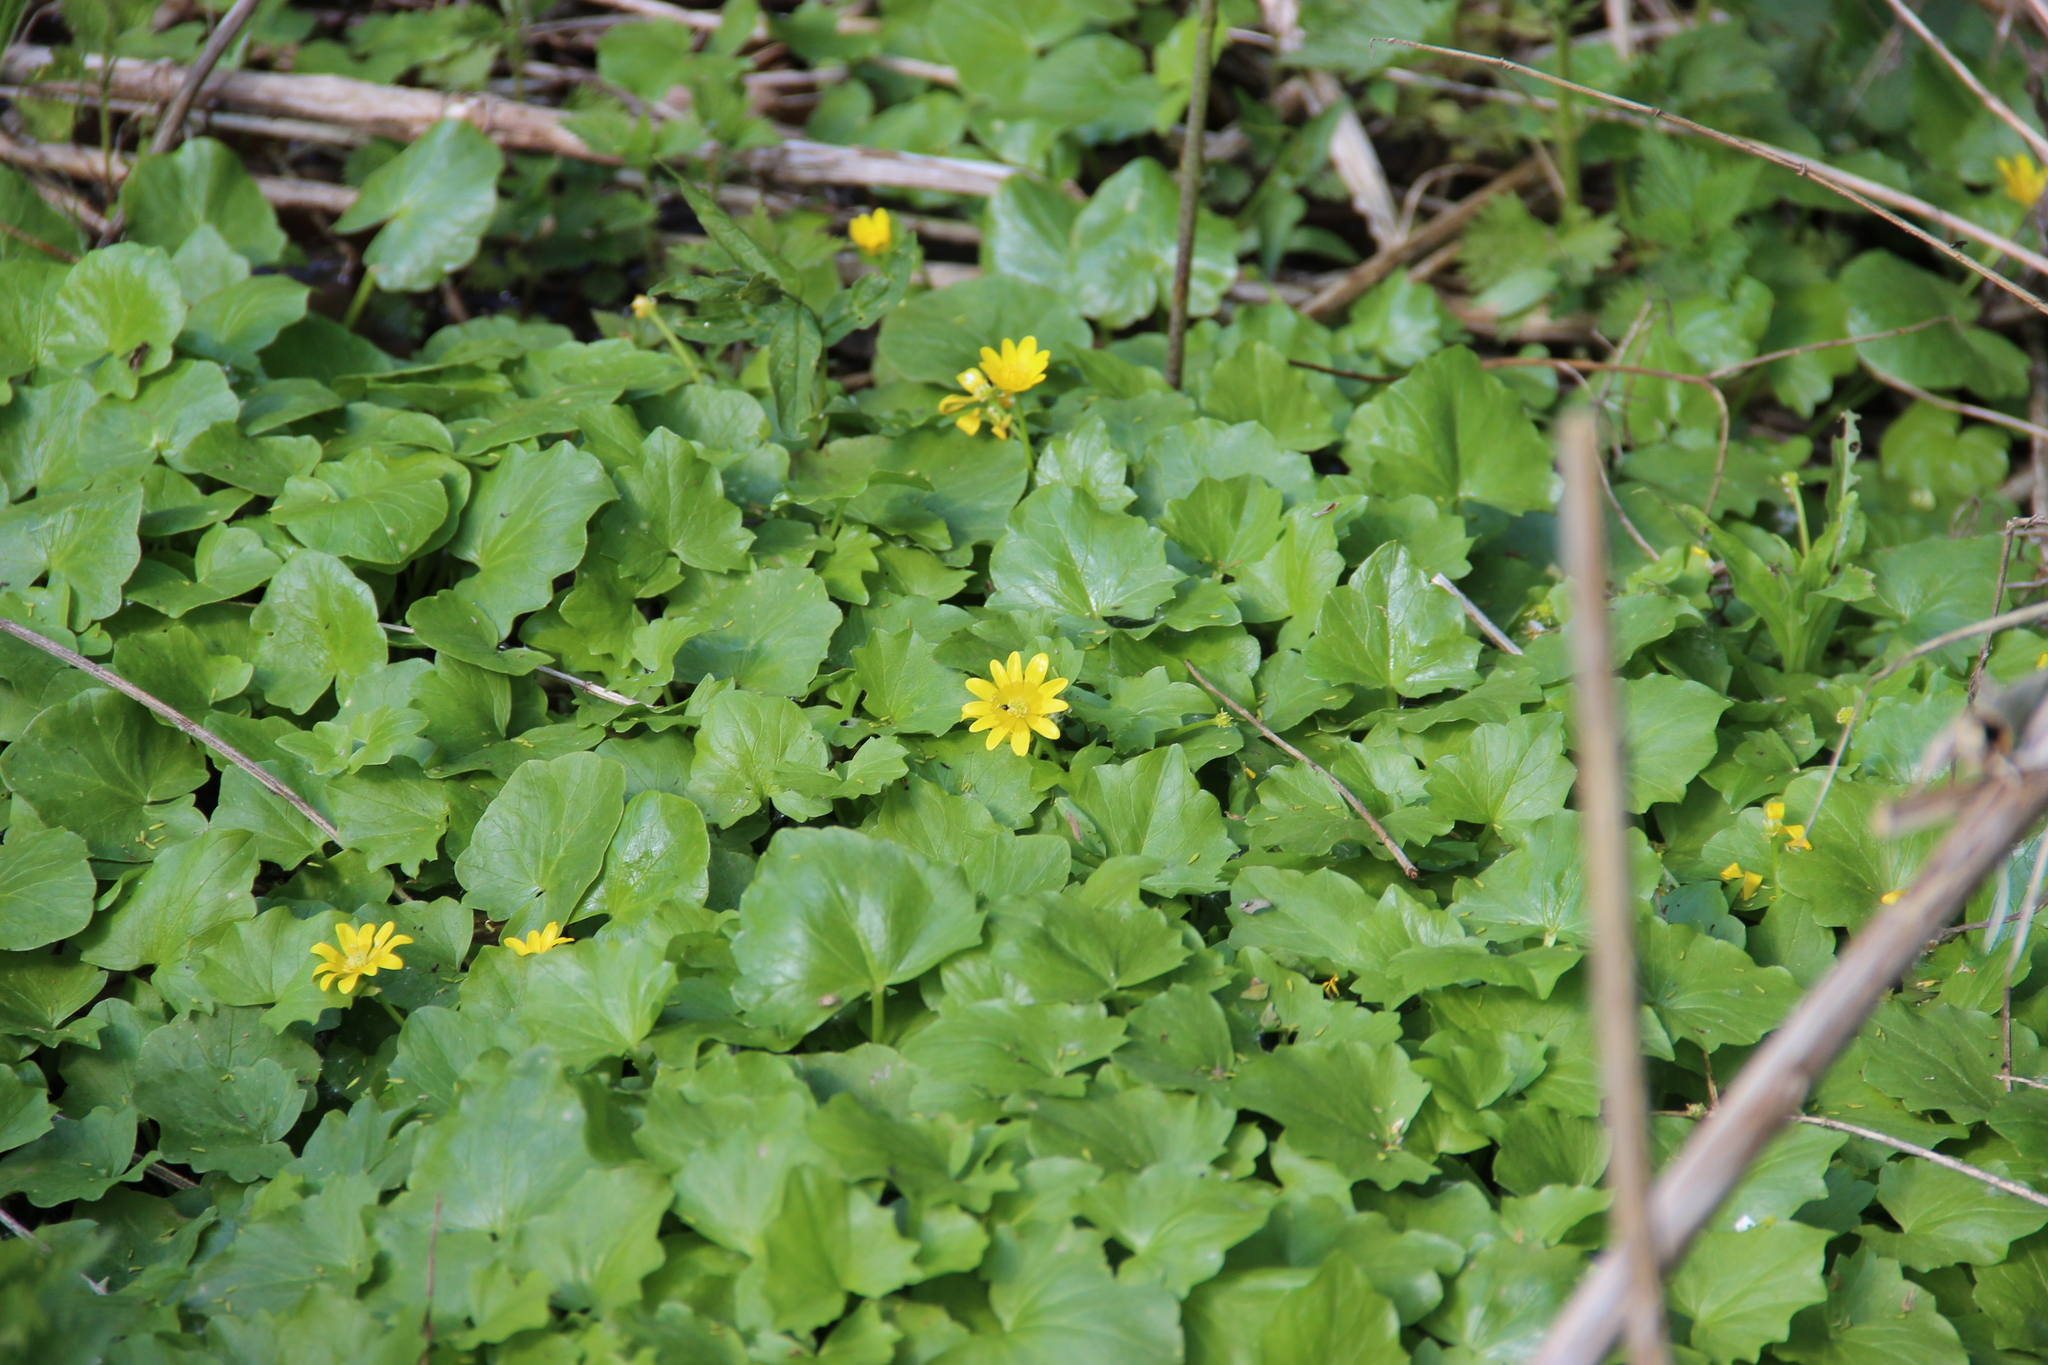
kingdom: Plantae
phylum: Tracheophyta
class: Magnoliopsida
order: Ranunculales
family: Ranunculaceae
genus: Ficaria
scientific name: Ficaria verna
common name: Lesser celandine
